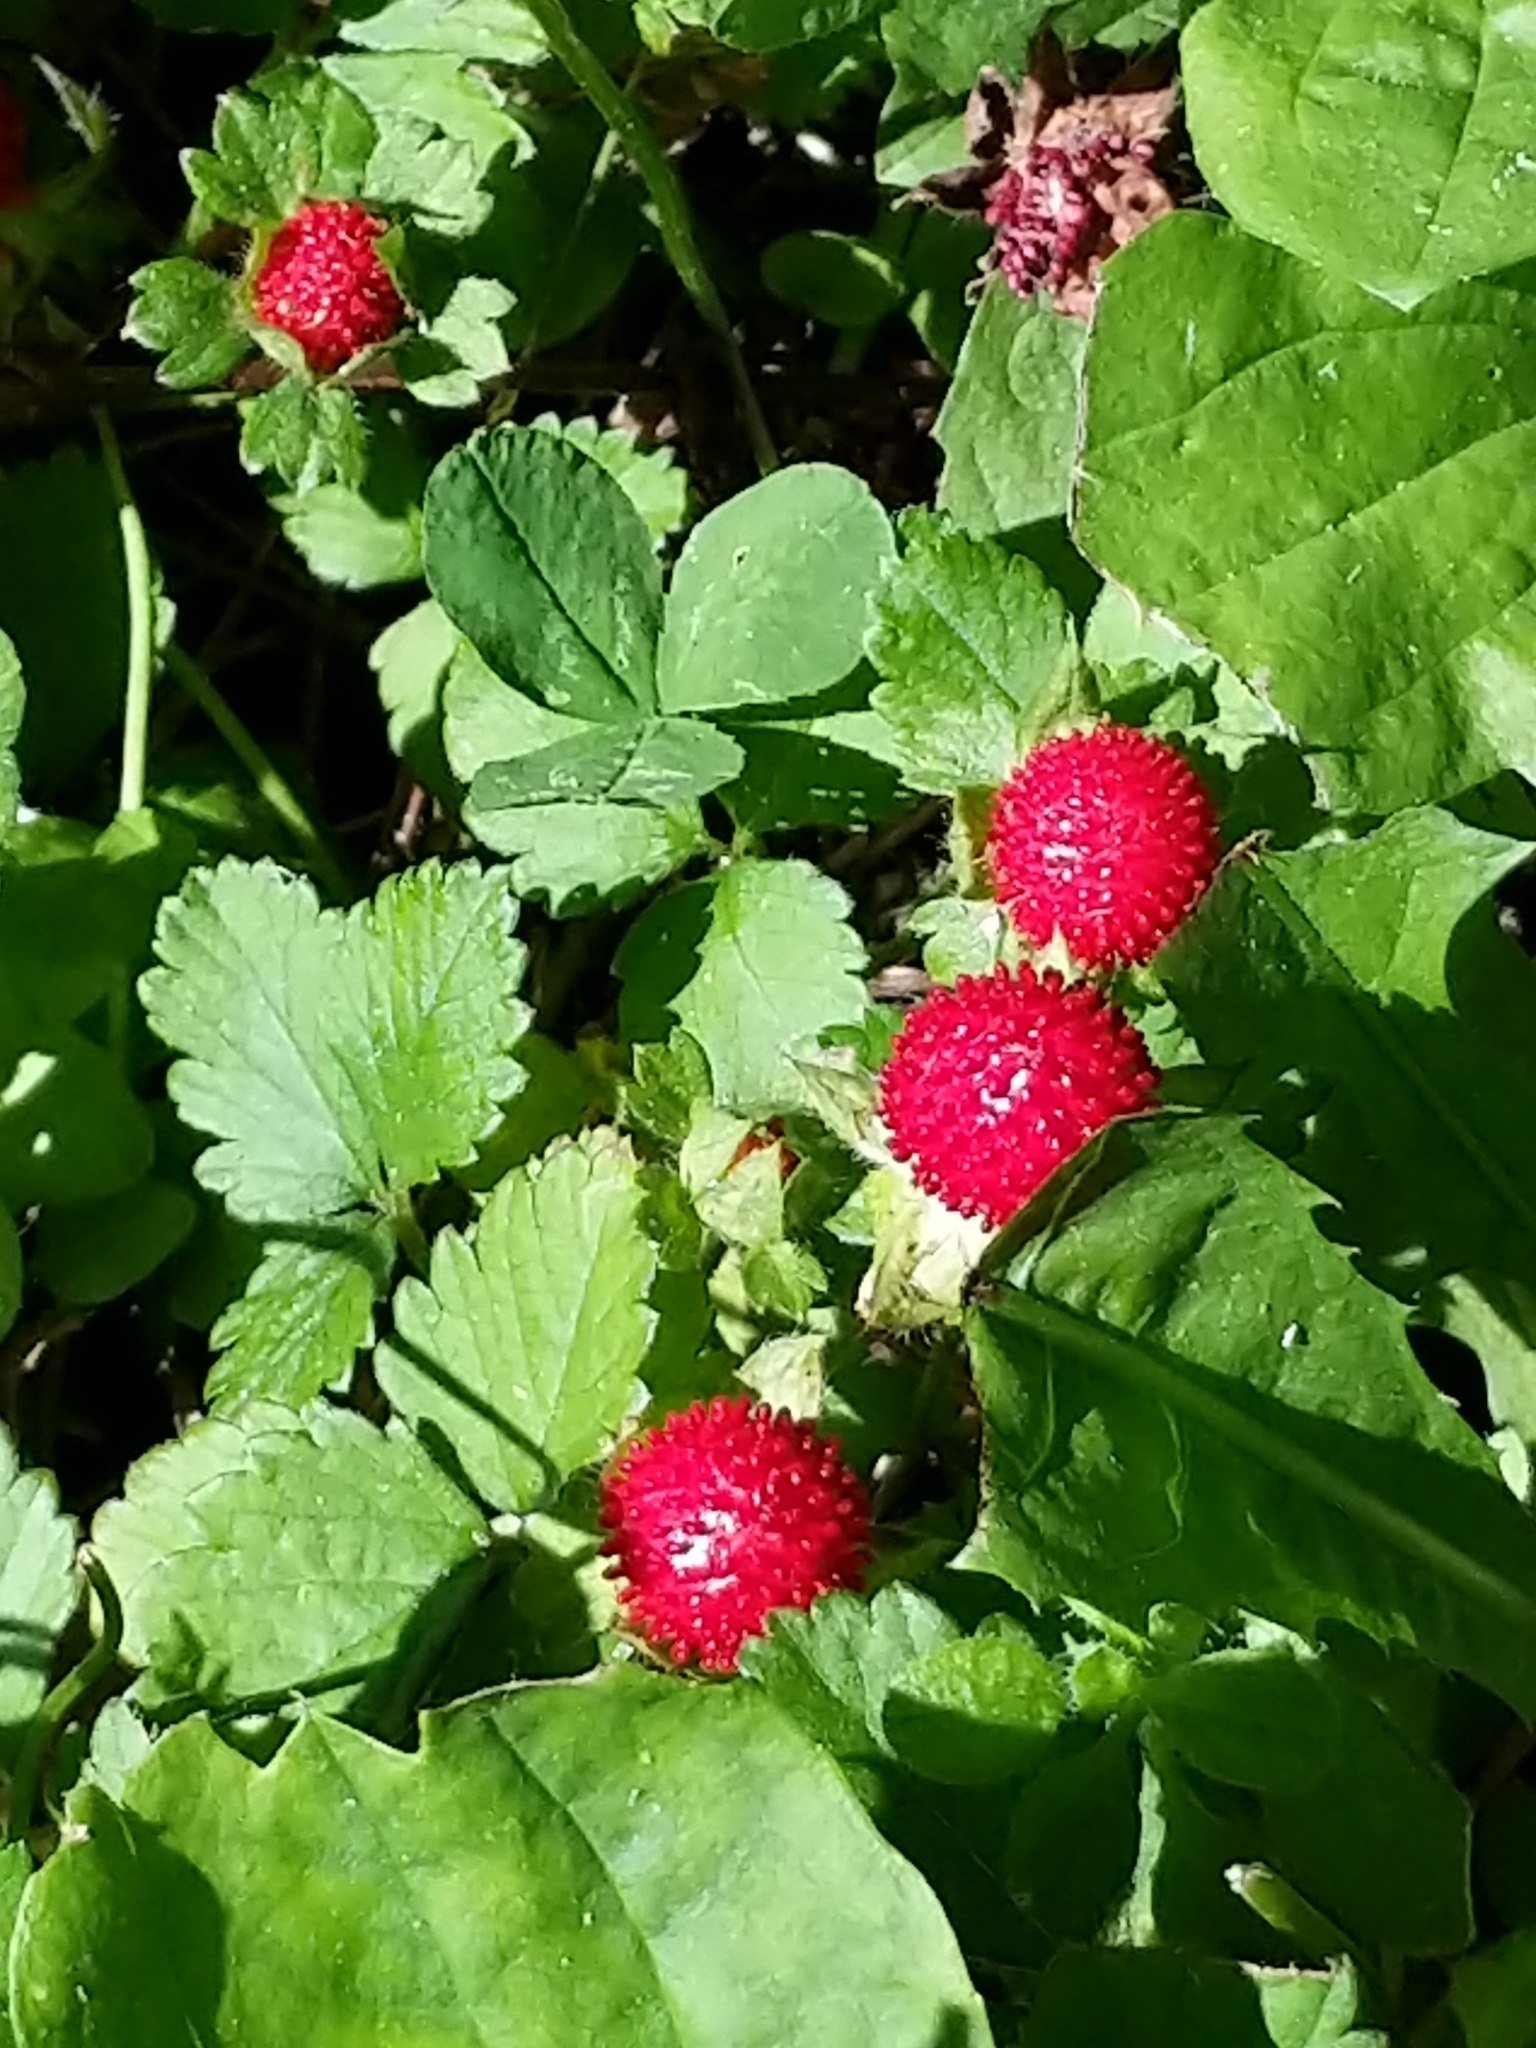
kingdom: Plantae
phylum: Tracheophyta
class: Magnoliopsida
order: Rosales
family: Rosaceae
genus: Potentilla
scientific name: Potentilla indica
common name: Yellow-flowered strawberry
